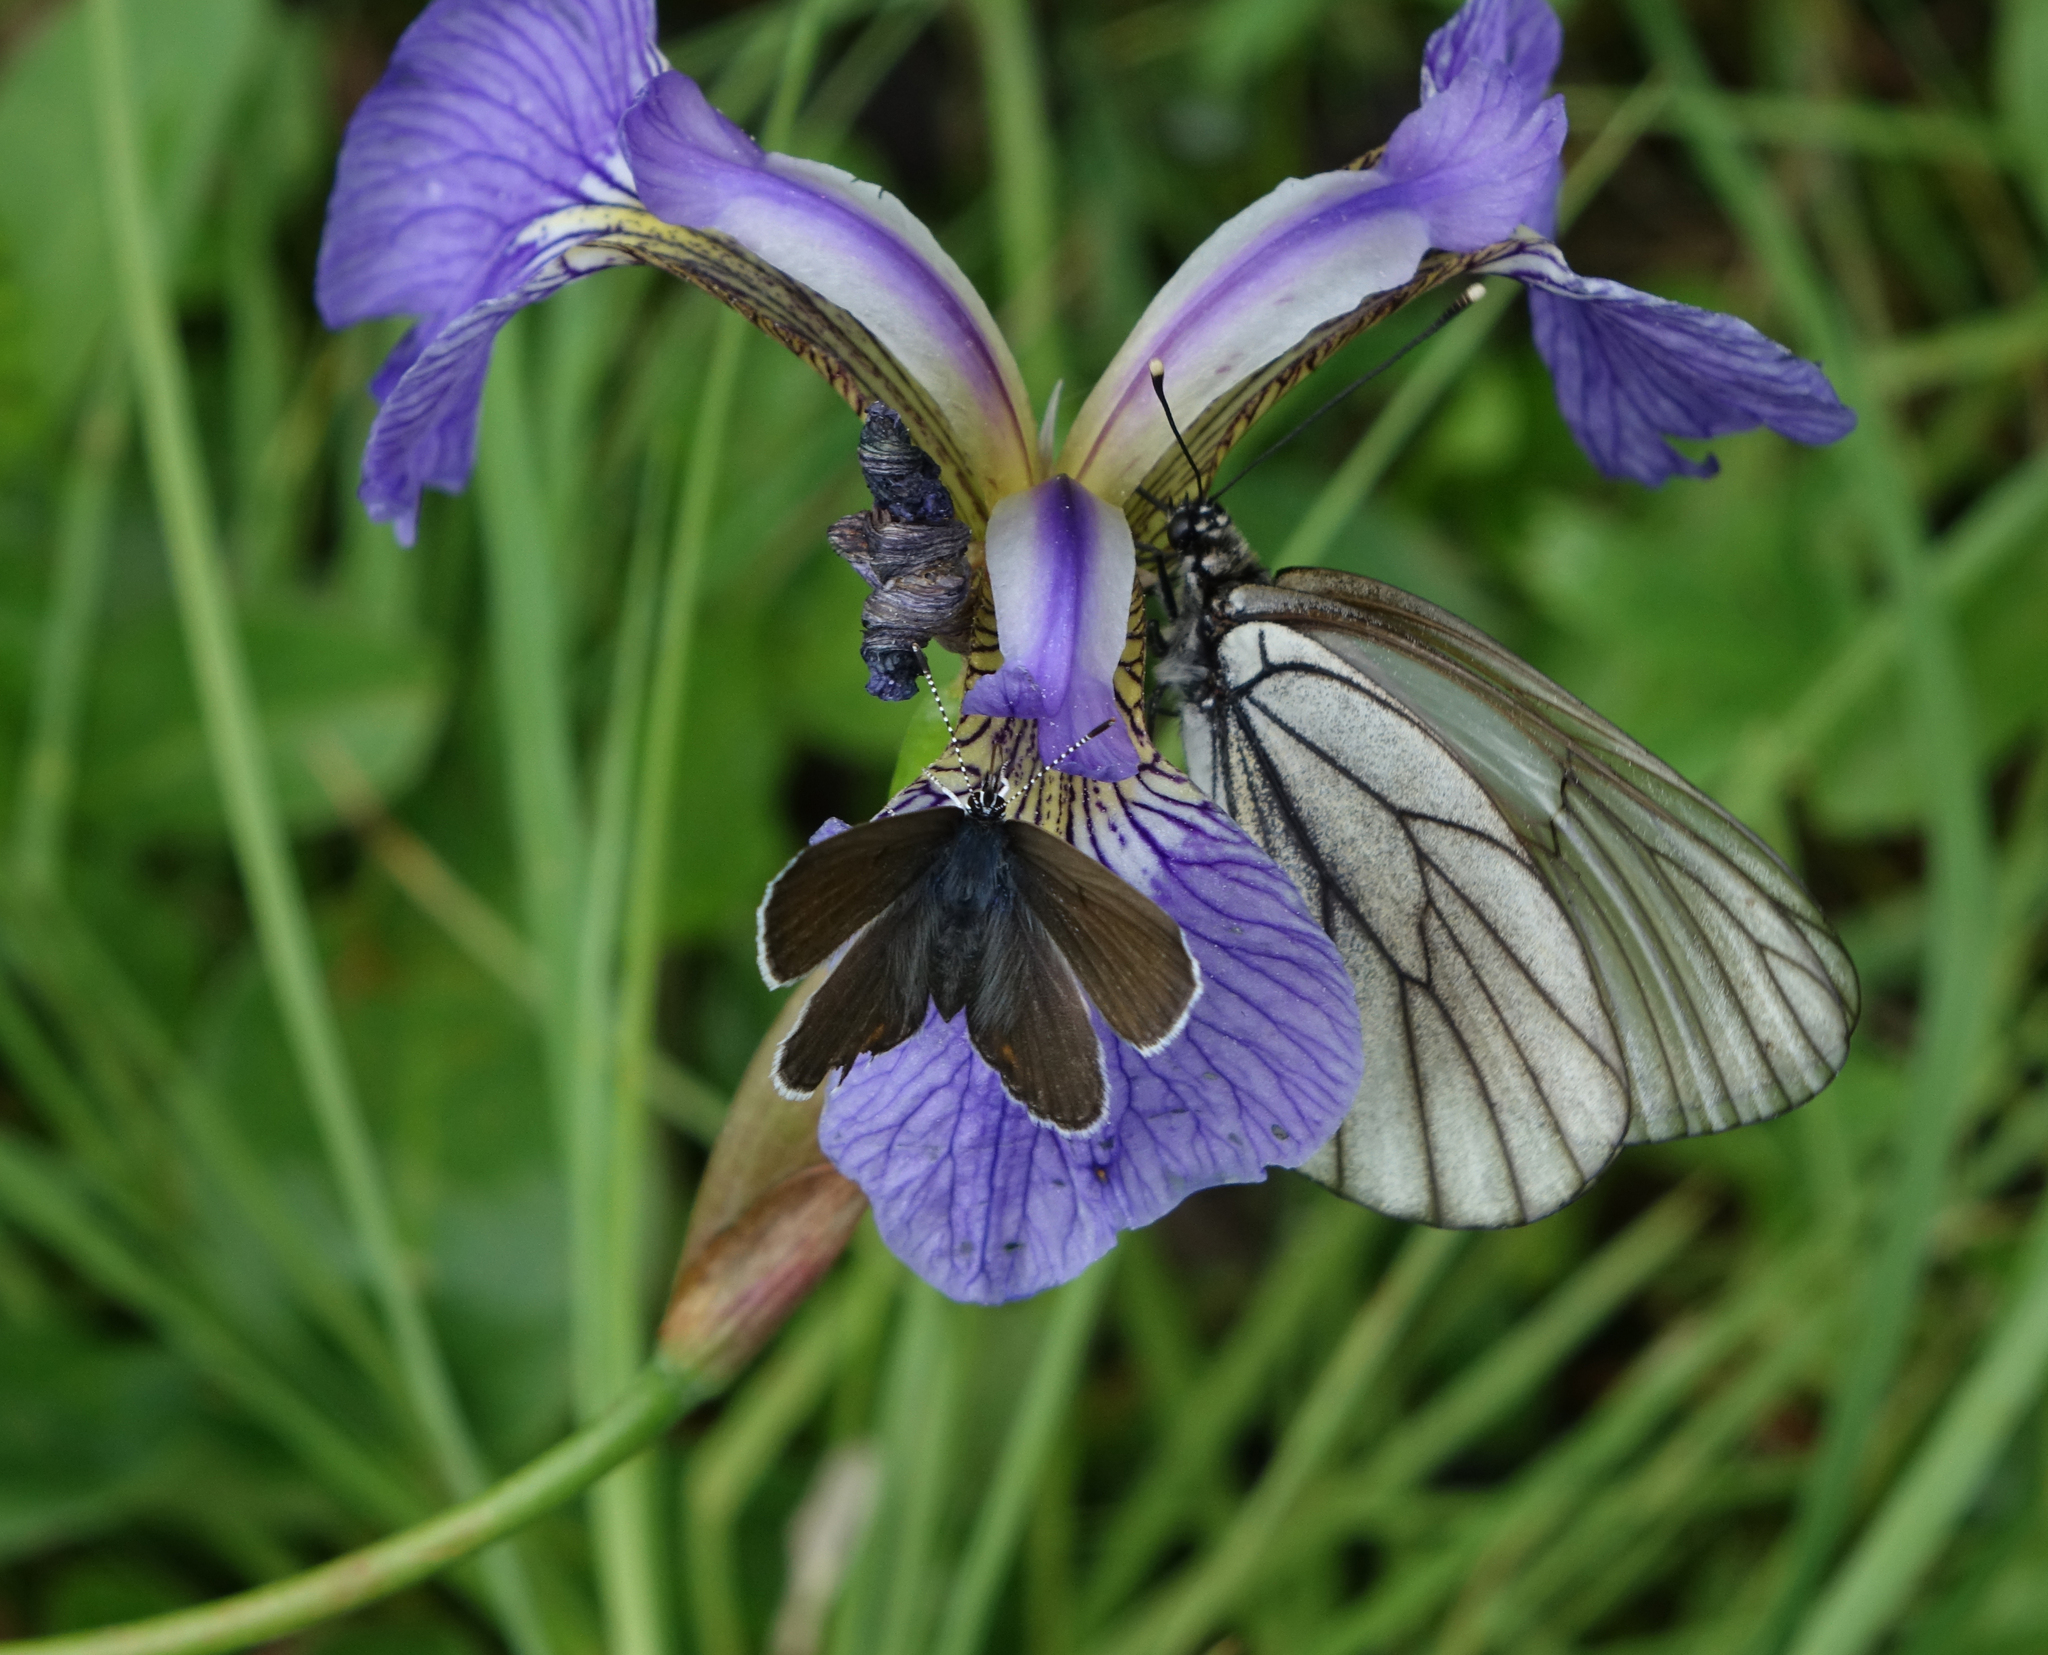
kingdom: Animalia
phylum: Arthropoda
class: Insecta
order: Lepidoptera
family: Pieridae
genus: Aporia
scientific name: Aporia crataegi
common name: Black-veined white
